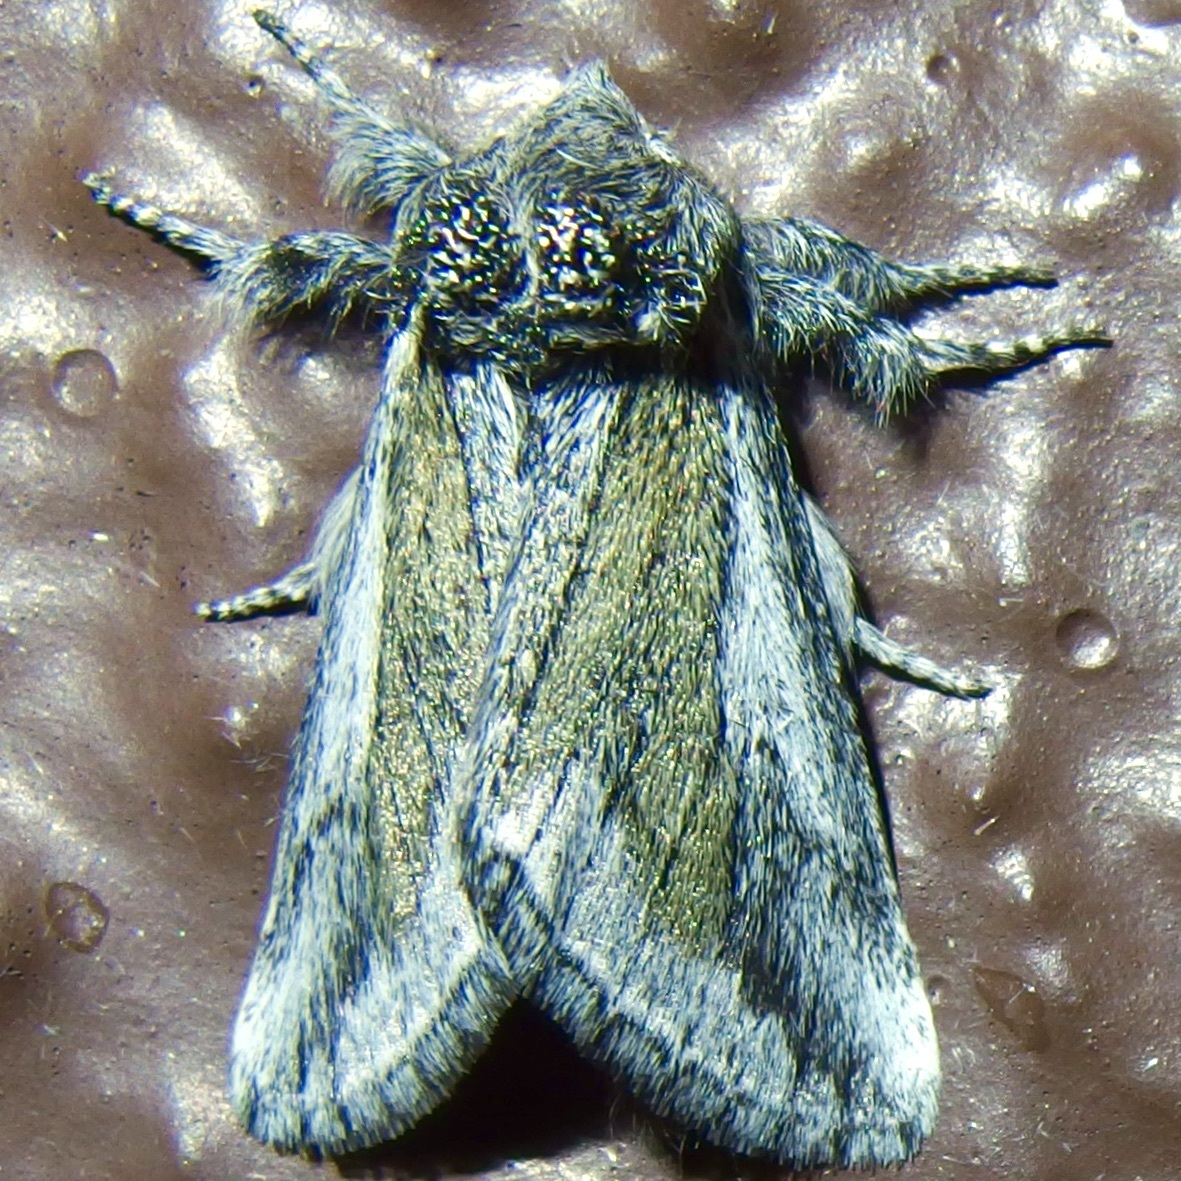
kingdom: Animalia
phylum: Arthropoda
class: Insecta
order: Lepidoptera
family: Notodontidae
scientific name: Notodontidae
